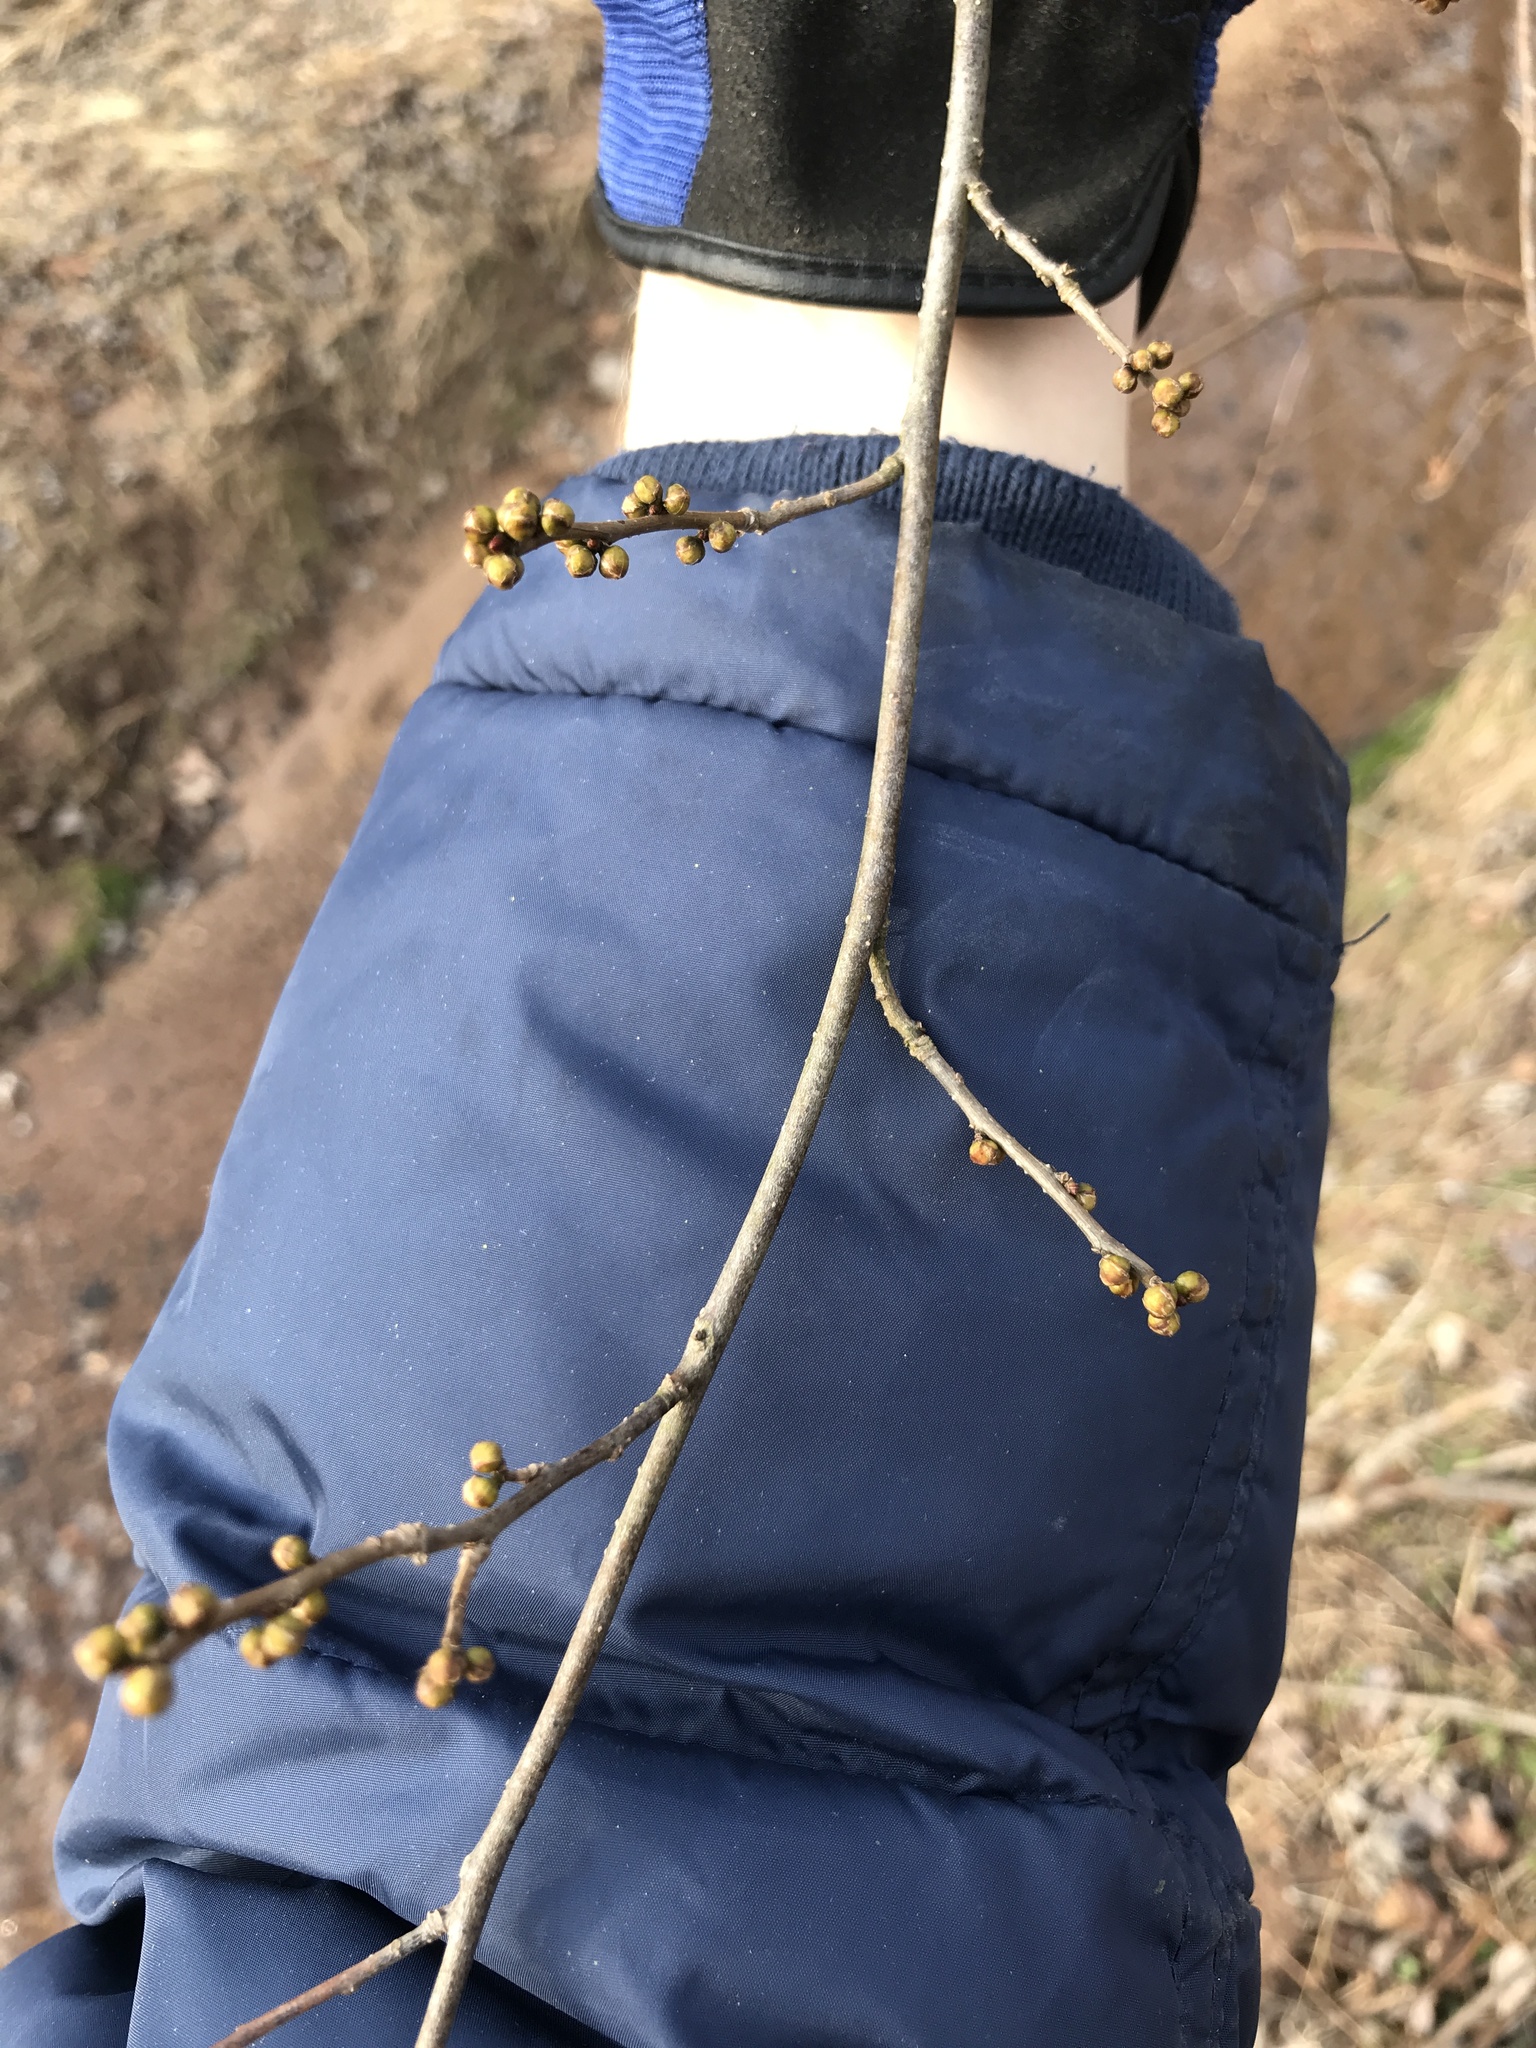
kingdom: Plantae
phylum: Tracheophyta
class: Magnoliopsida
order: Laurales
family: Lauraceae
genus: Lindera
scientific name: Lindera benzoin
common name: Spicebush
